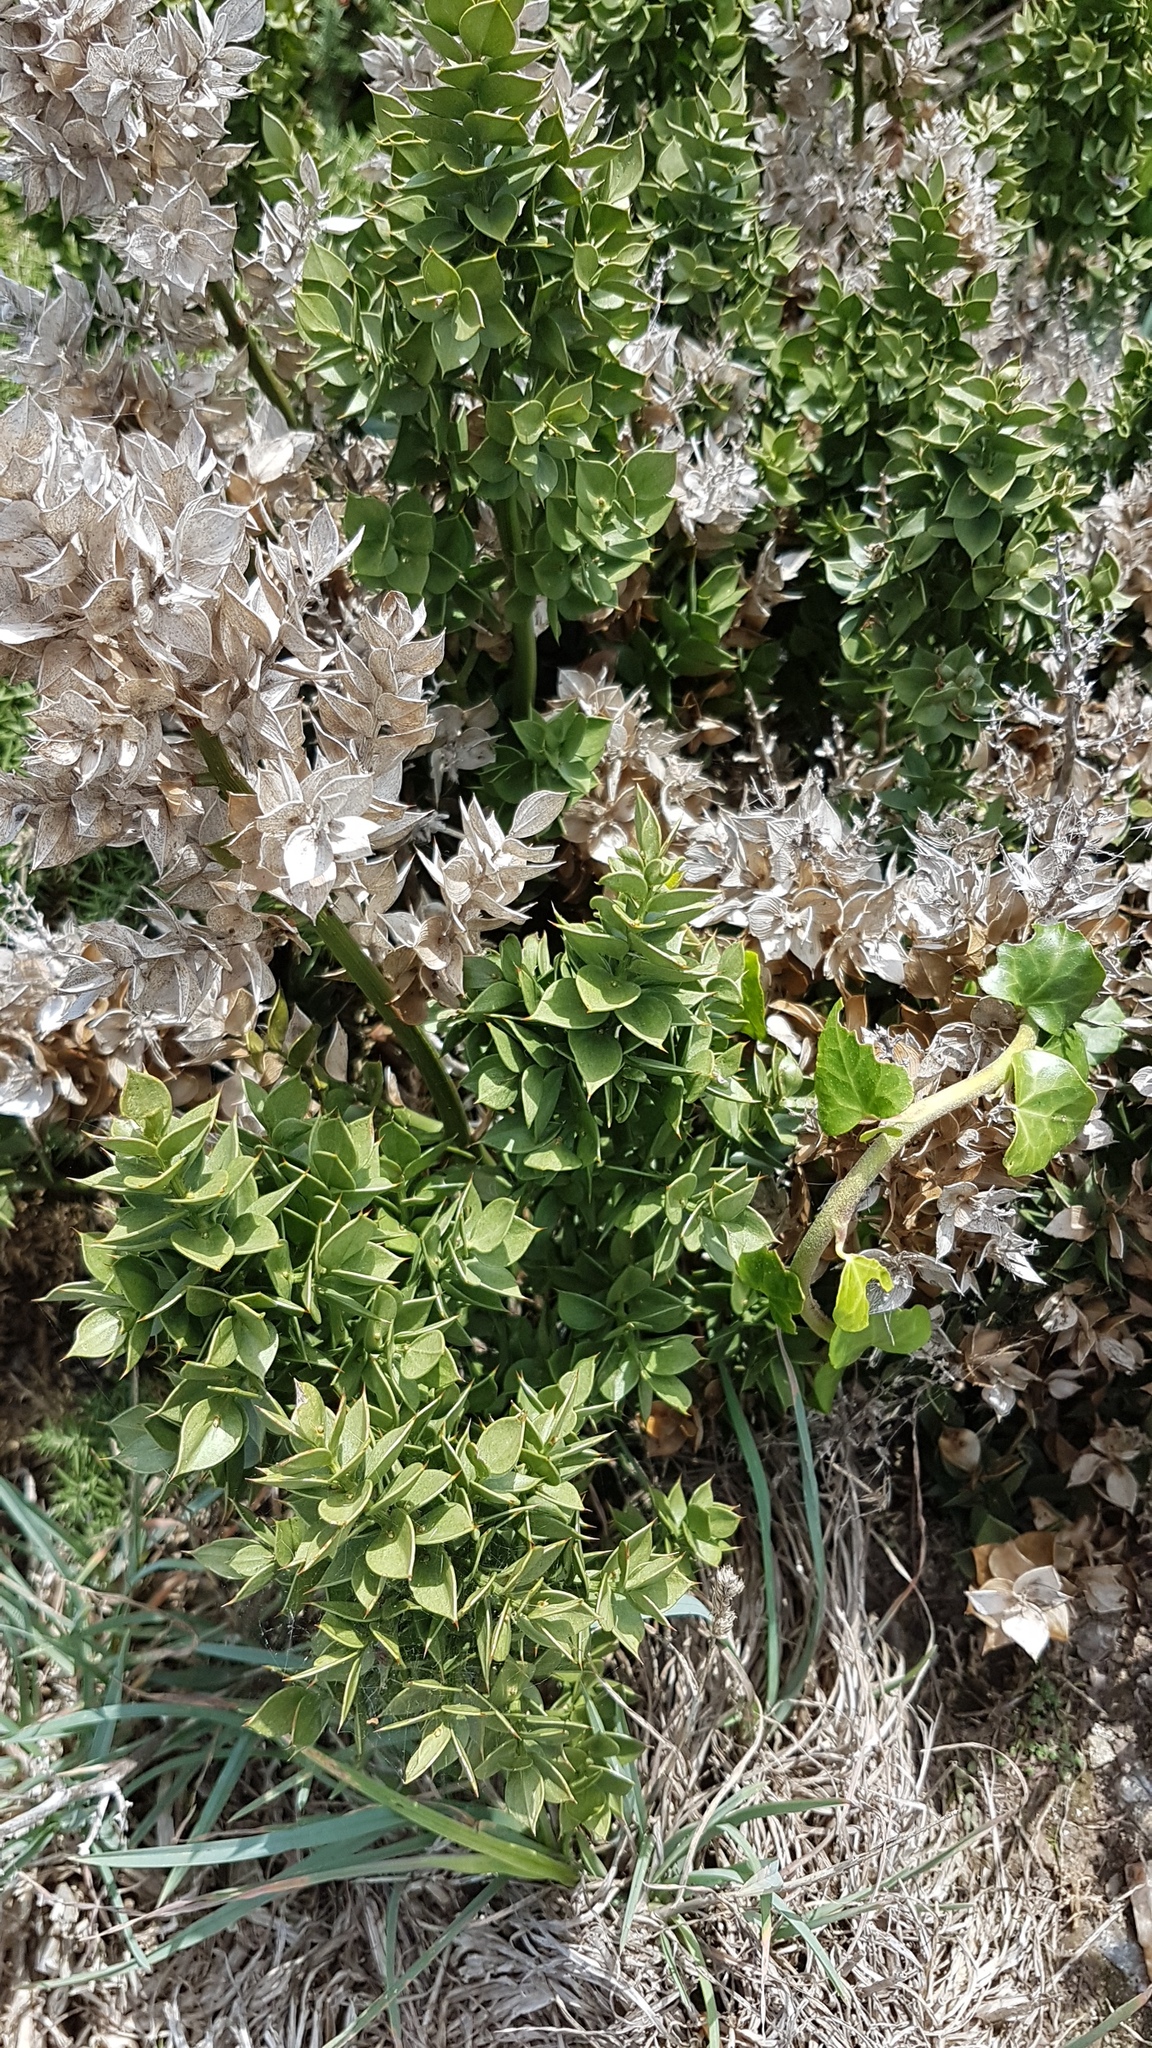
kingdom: Plantae
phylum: Tracheophyta
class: Liliopsida
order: Asparagales
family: Asparagaceae
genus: Ruscus
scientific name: Ruscus aculeatus
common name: Butcher's-broom
